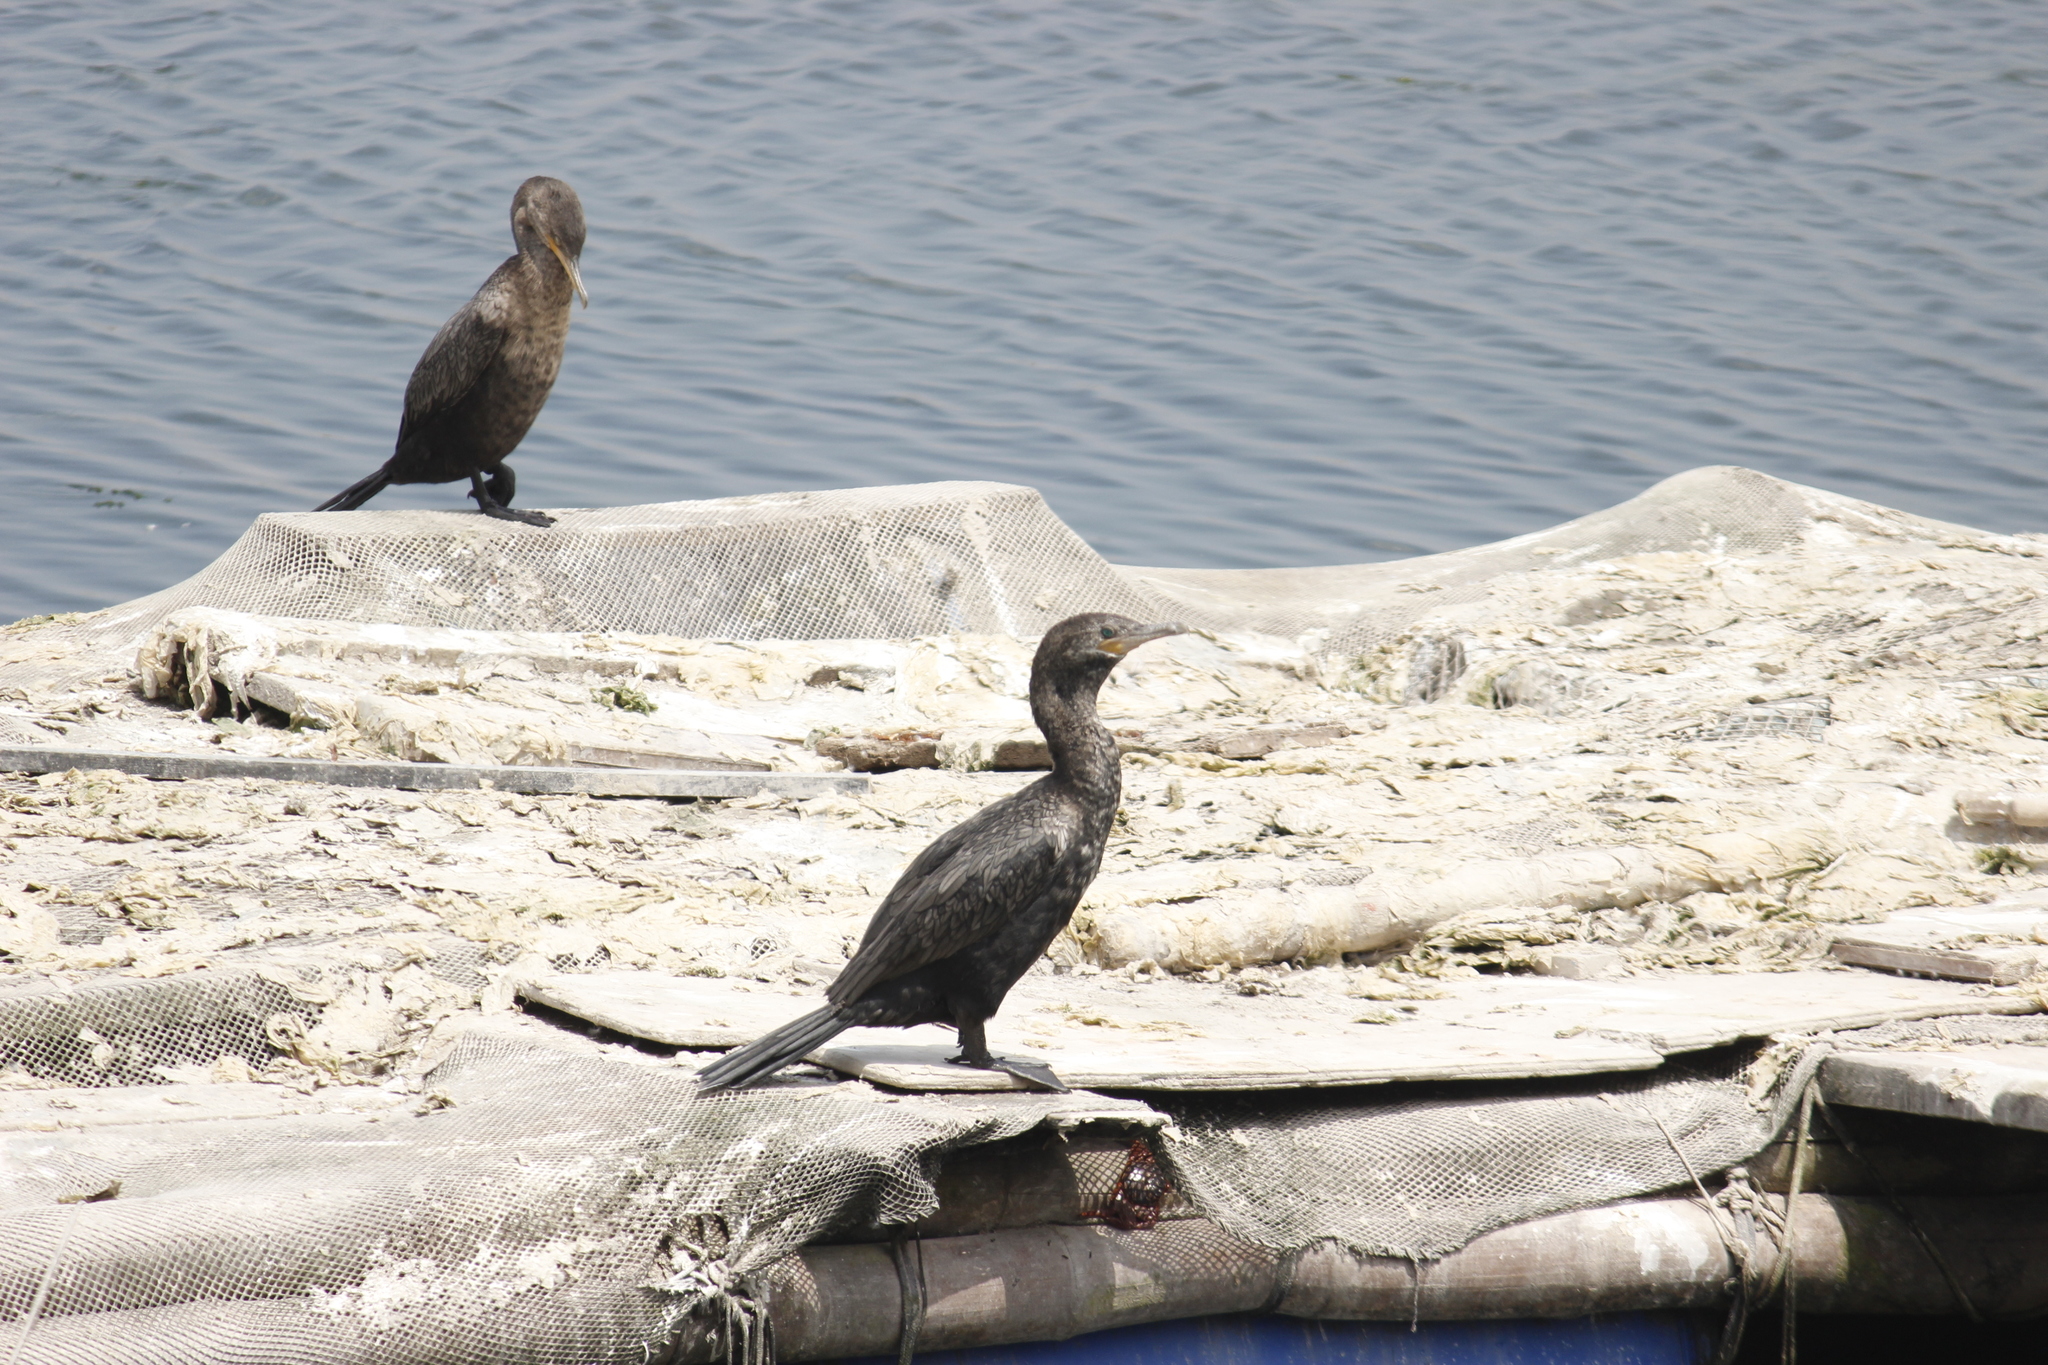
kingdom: Animalia
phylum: Chordata
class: Aves
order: Suliformes
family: Phalacrocoracidae
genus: Phalacrocorax
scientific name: Phalacrocorax brasilianus
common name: Neotropic cormorant
